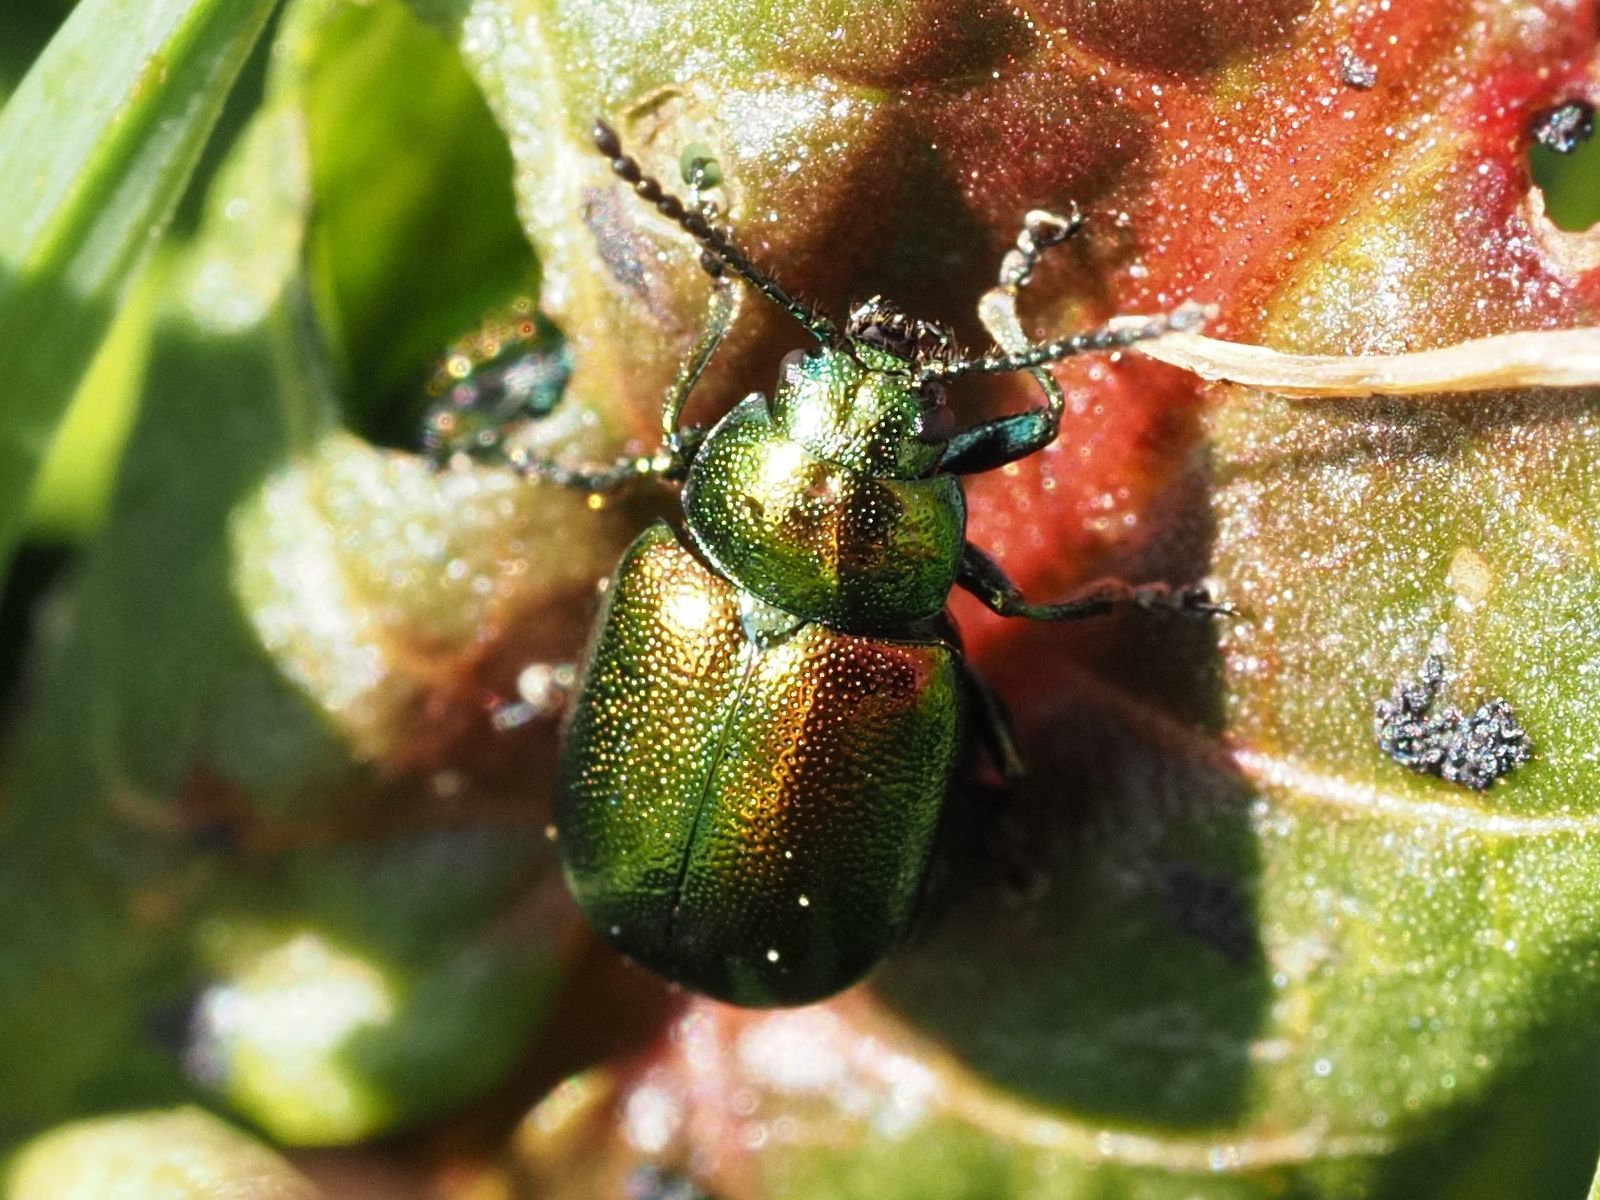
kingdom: Animalia
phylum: Arthropoda
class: Insecta
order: Coleoptera
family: Chrysomelidae
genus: Gastrophysa
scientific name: Gastrophysa viridula
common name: Green dock beetle
